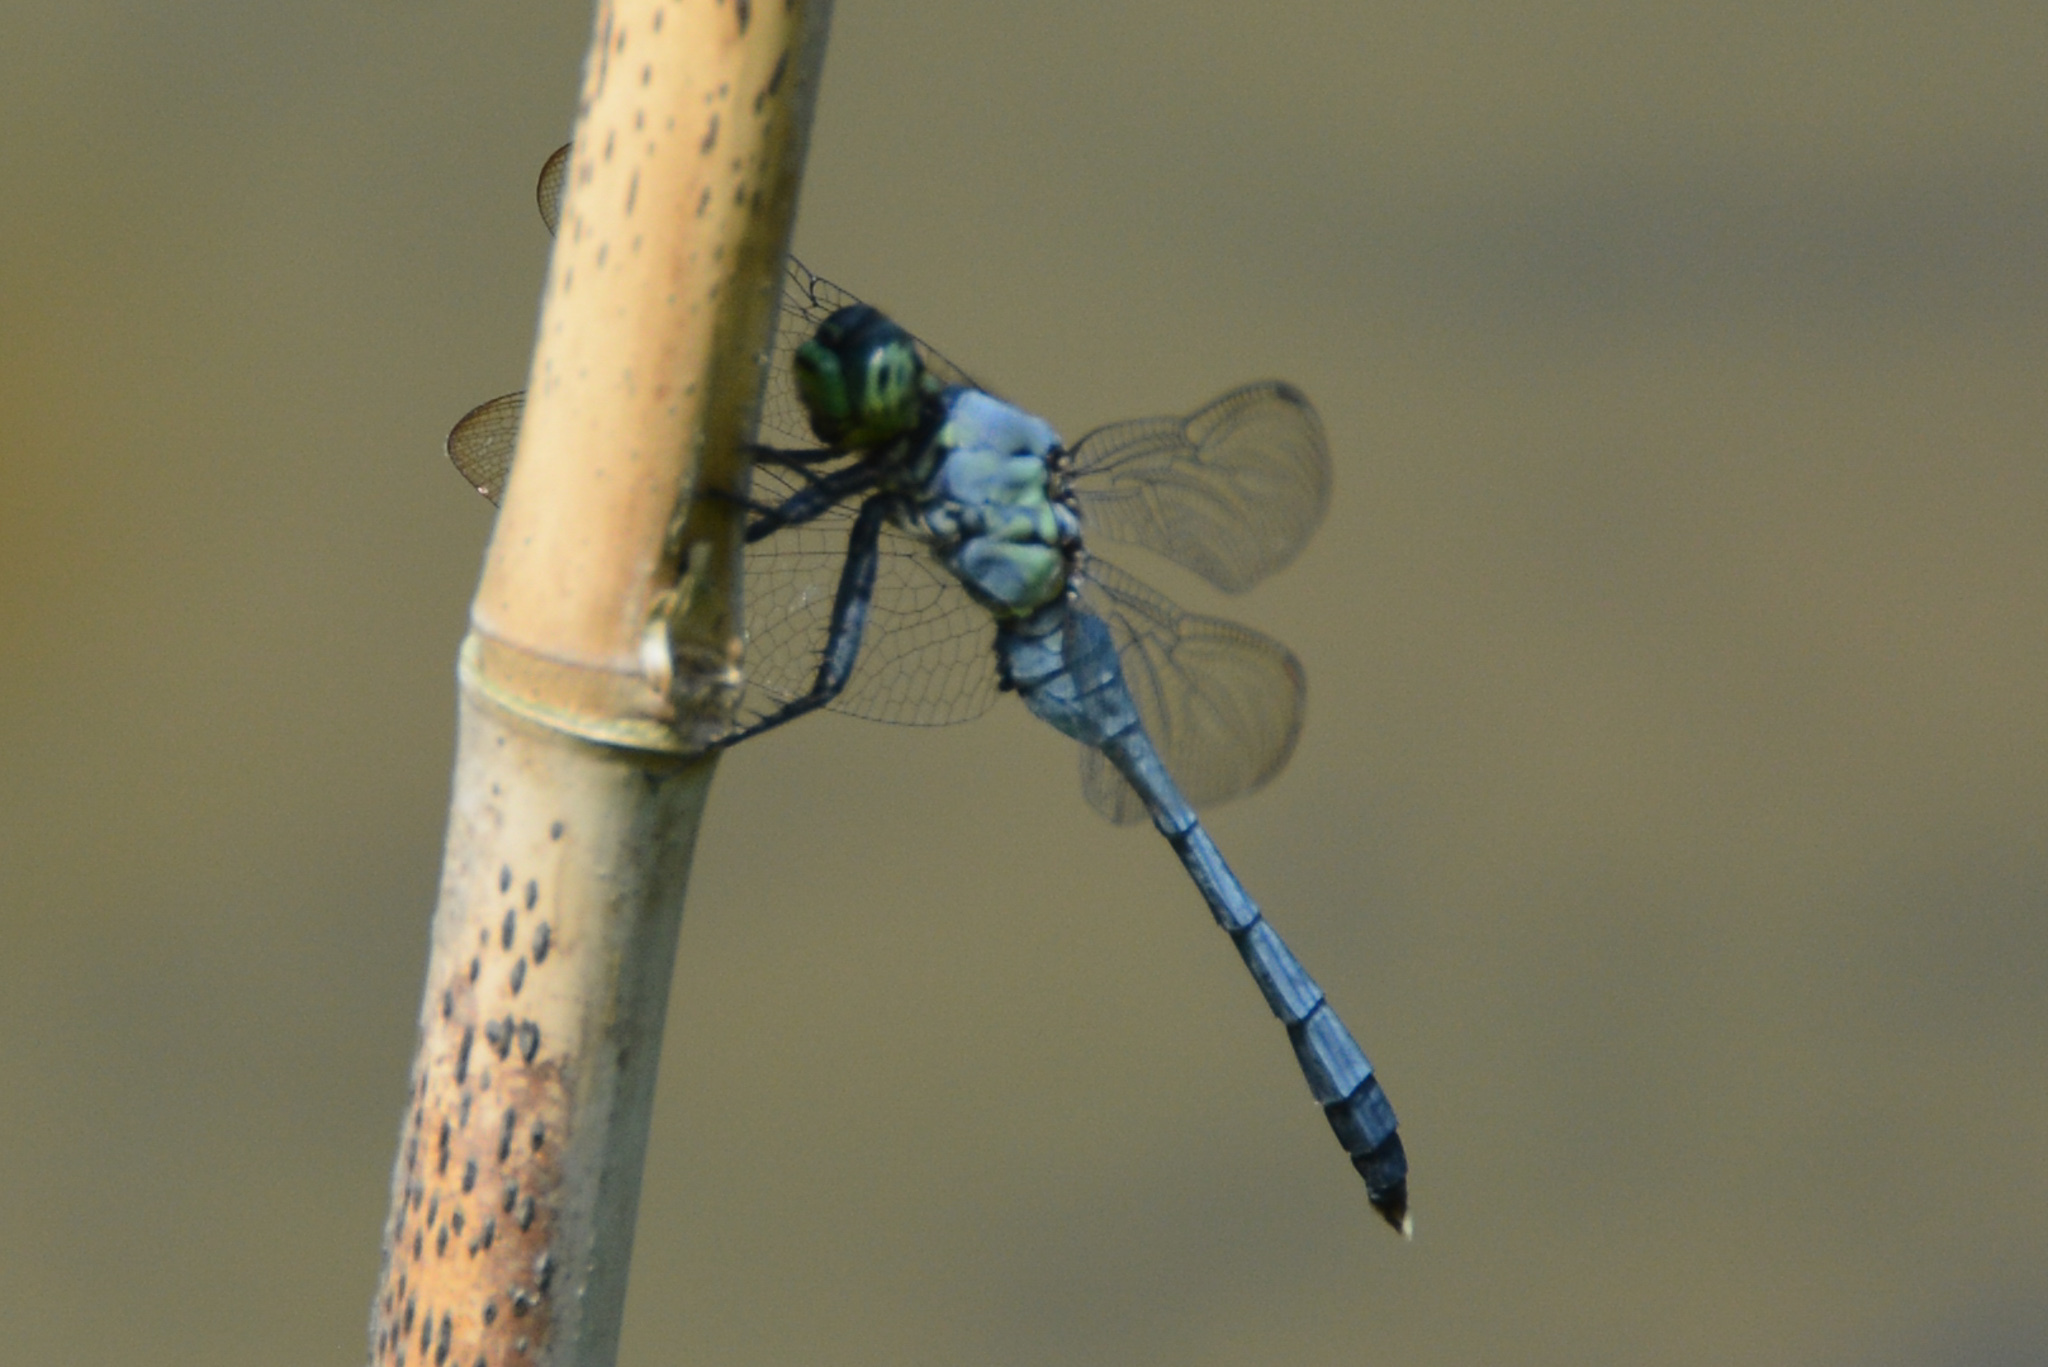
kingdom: Animalia
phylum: Arthropoda
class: Insecta
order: Odonata
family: Libellulidae
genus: Erythemis
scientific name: Erythemis simplicicollis
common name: Eastern pondhawk
